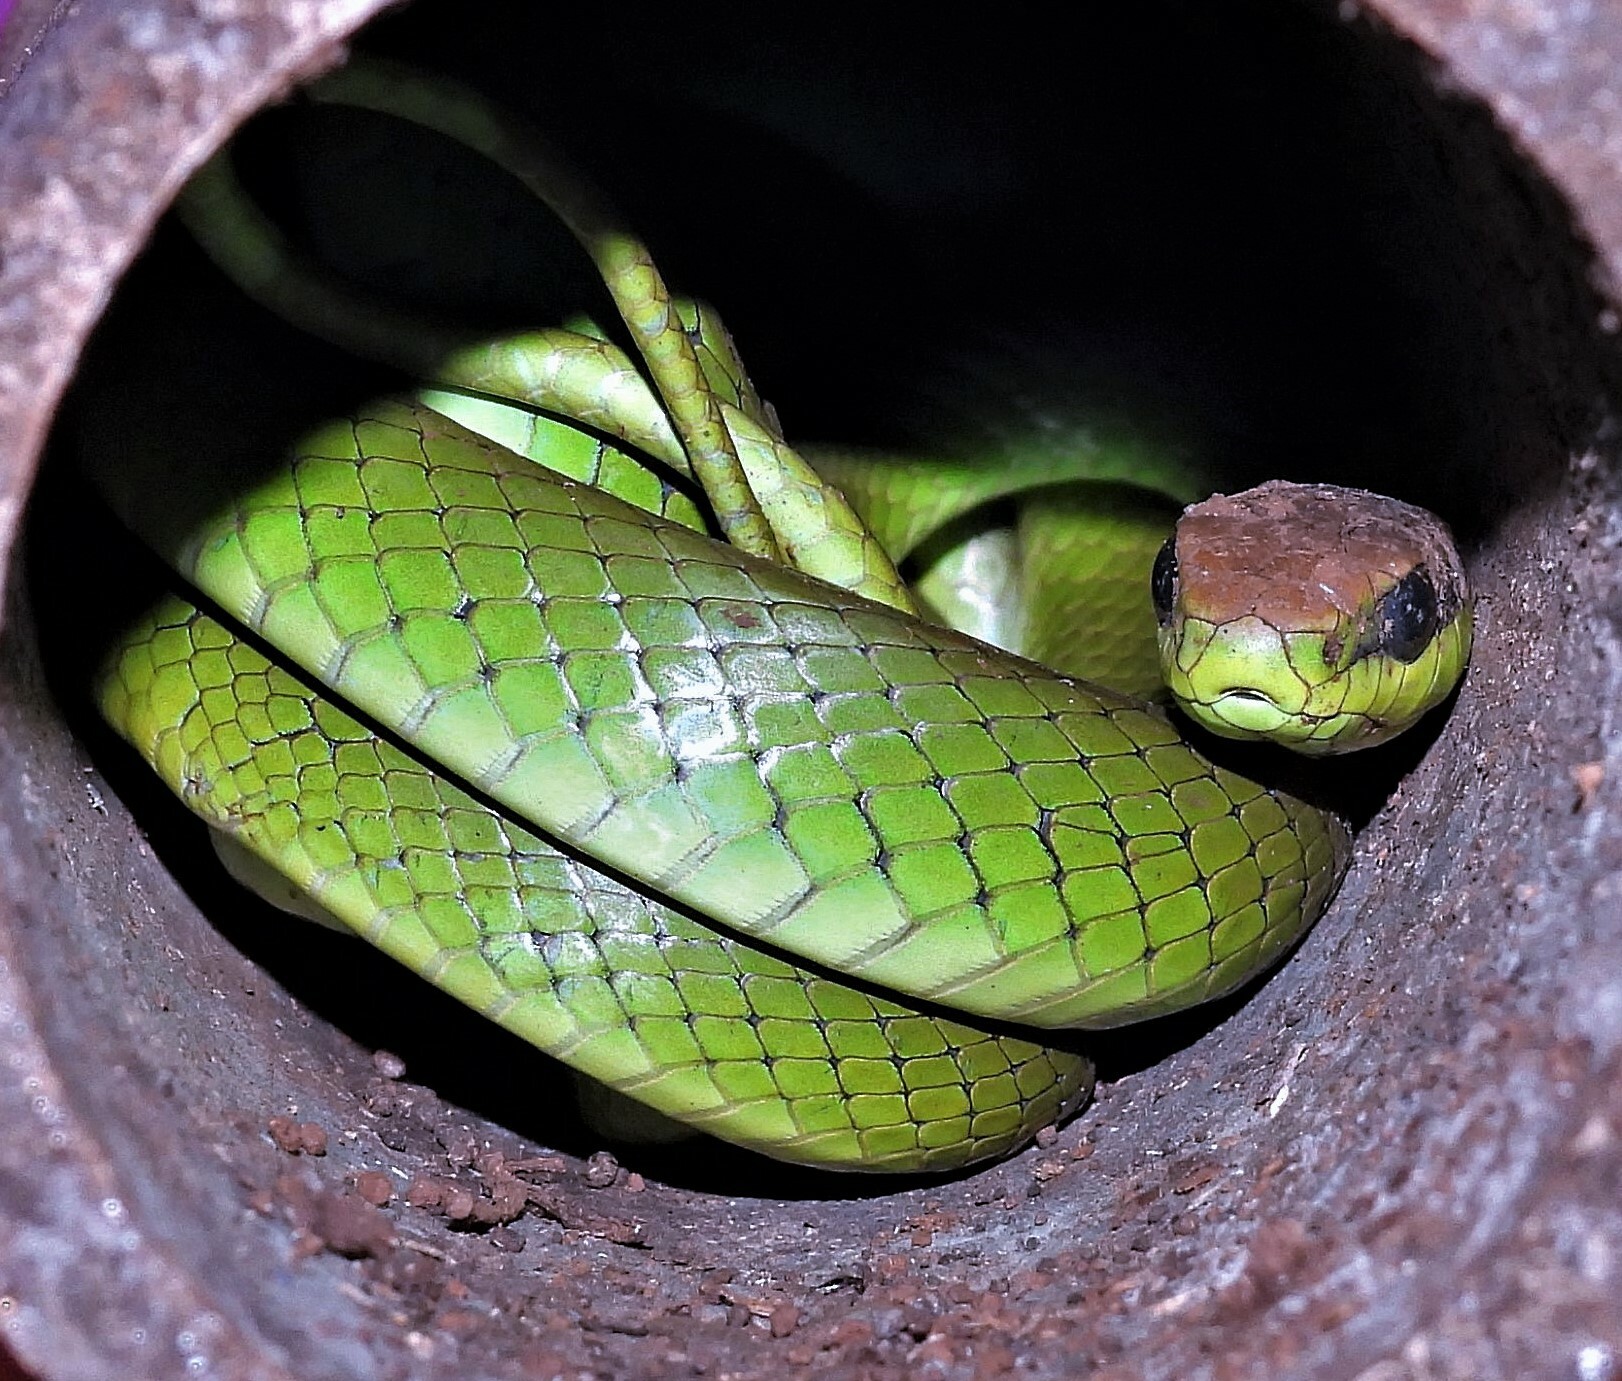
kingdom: Animalia
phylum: Chordata
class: Squamata
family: Colubridae
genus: Philodryas
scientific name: Philodryas olfersii
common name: Lichtenstein's green racer
